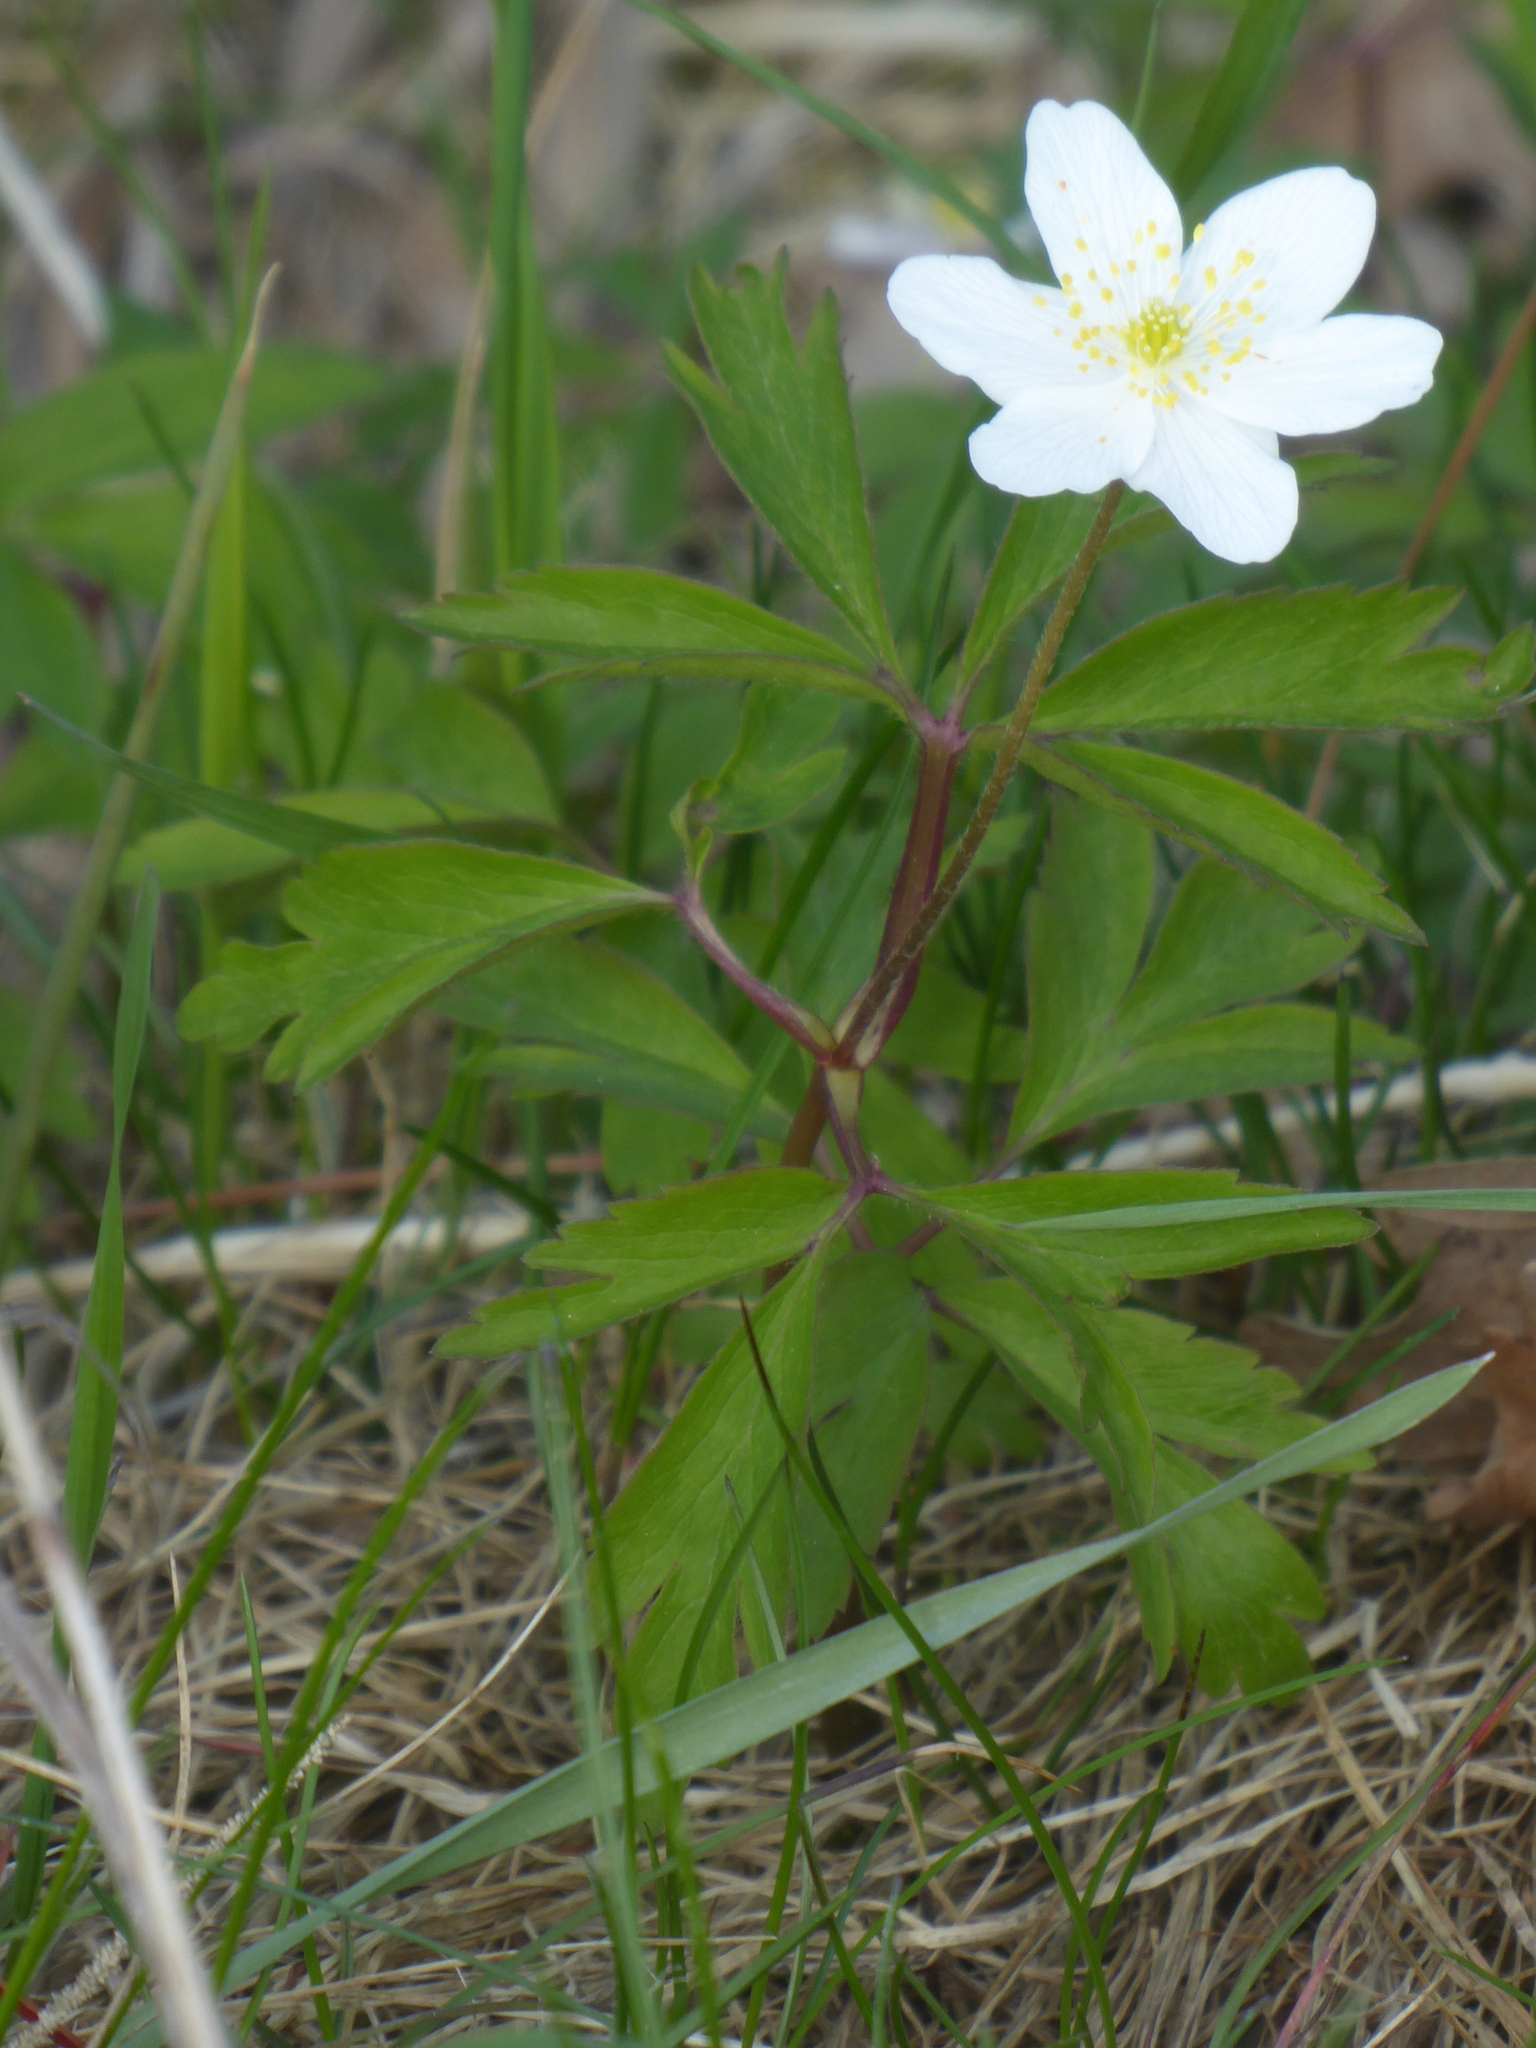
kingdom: Plantae
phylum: Tracheophyta
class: Magnoliopsida
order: Ranunculales
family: Ranunculaceae
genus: Anemone
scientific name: Anemone nemorosa
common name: Wood anemone
